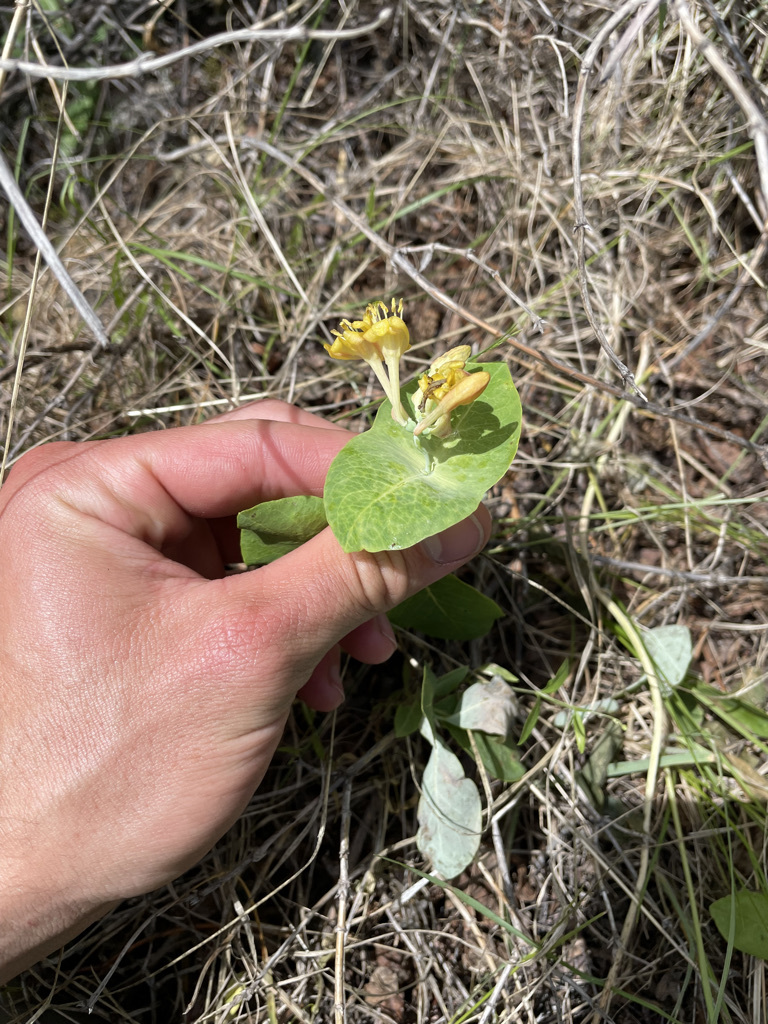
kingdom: Plantae
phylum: Tracheophyta
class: Magnoliopsida
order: Dipsacales
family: Caprifoliaceae
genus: Lonicera
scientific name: Lonicera dioica
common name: Limber honeysuckle
